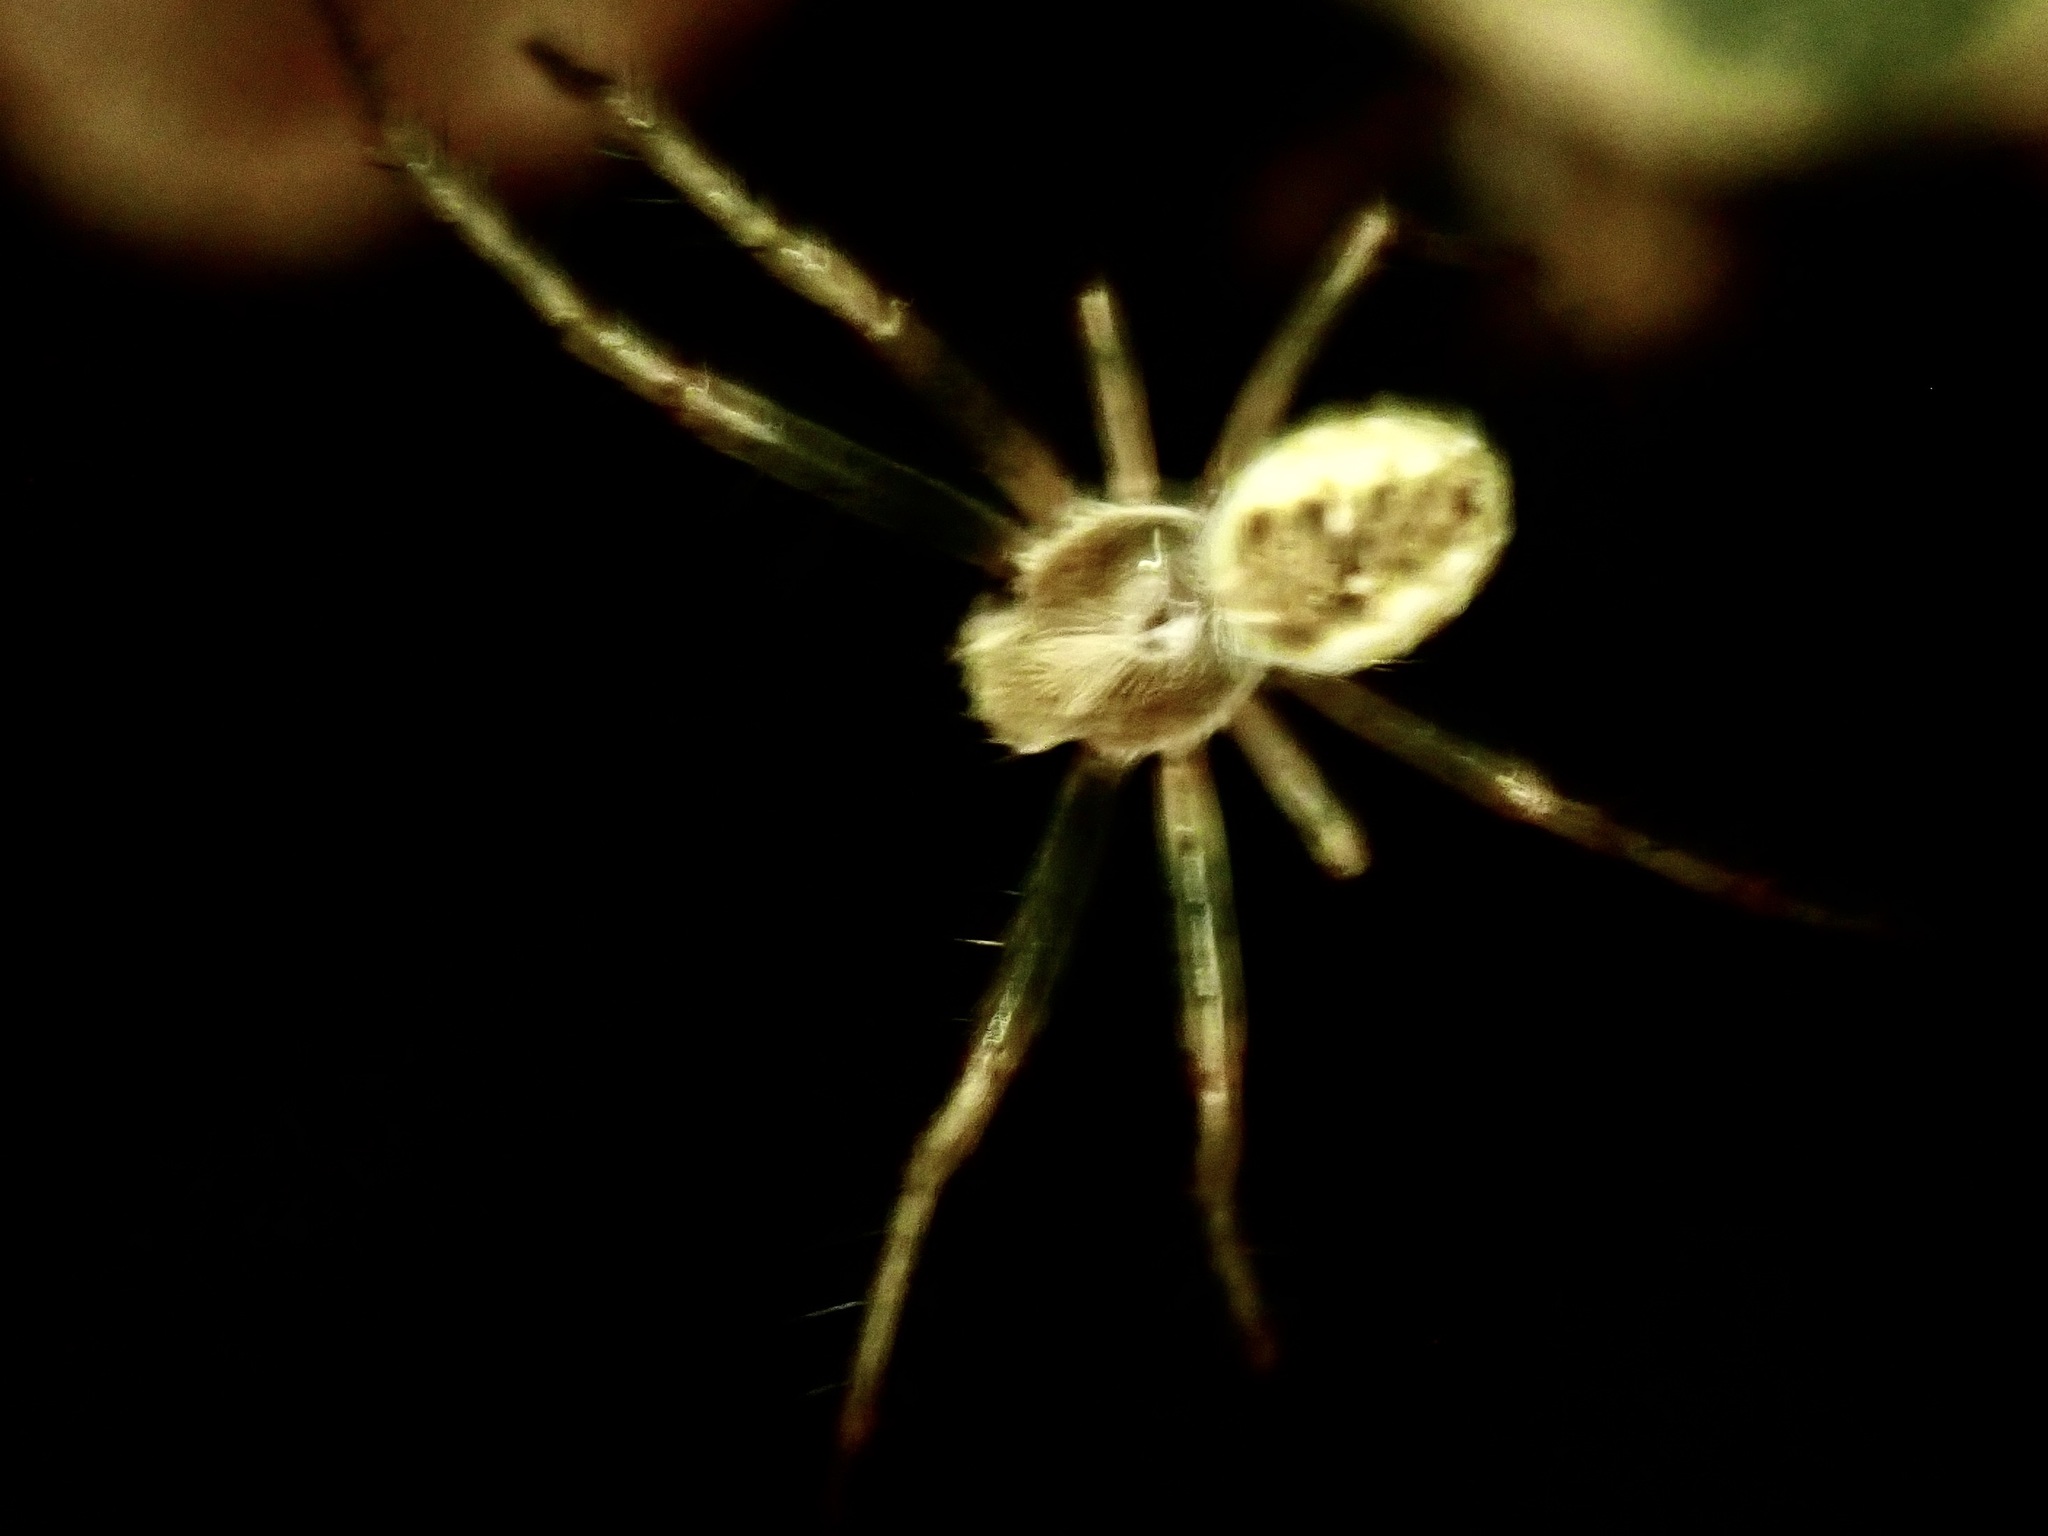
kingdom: Animalia
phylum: Arthropoda
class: Arachnida
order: Araneae
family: Araneidae
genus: Salsa
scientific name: Salsa fuliginata
